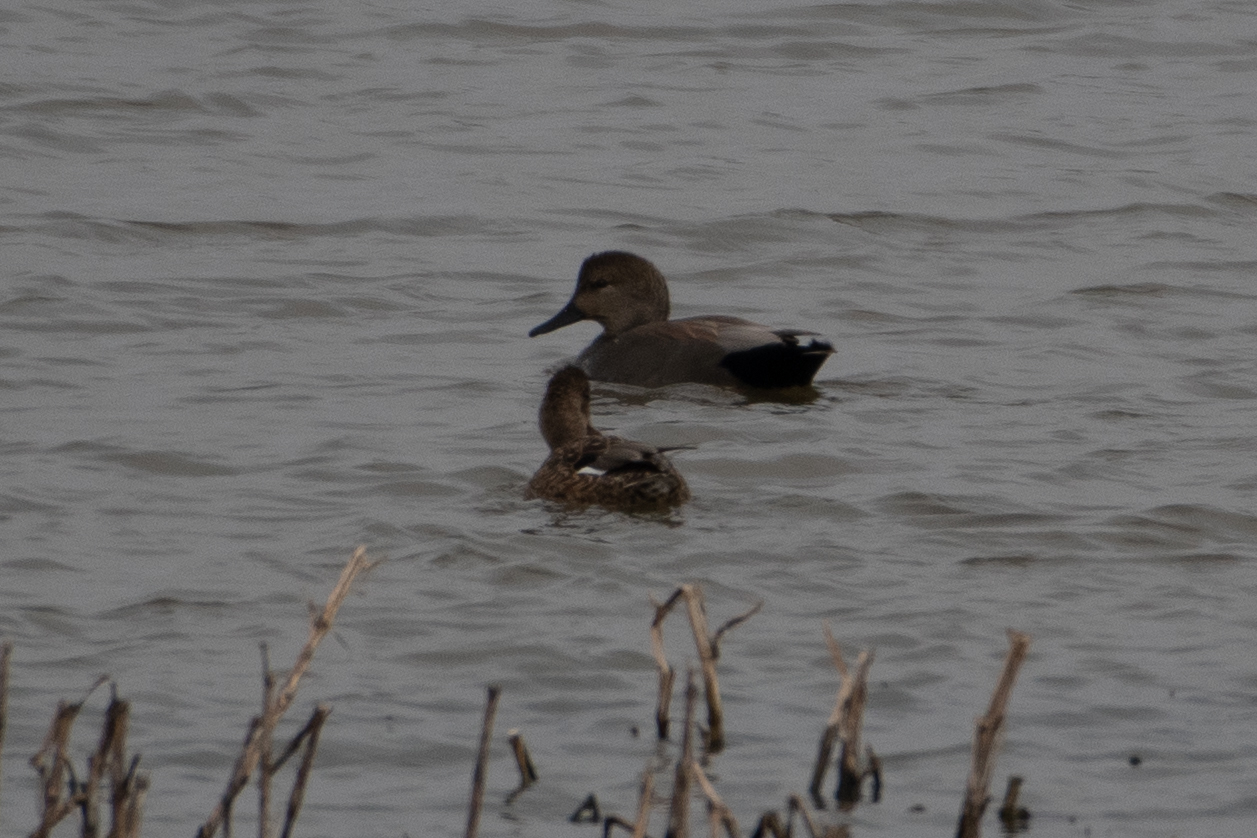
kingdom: Animalia
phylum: Chordata
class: Aves
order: Anseriformes
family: Anatidae
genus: Mareca
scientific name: Mareca strepera
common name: Gadwall
